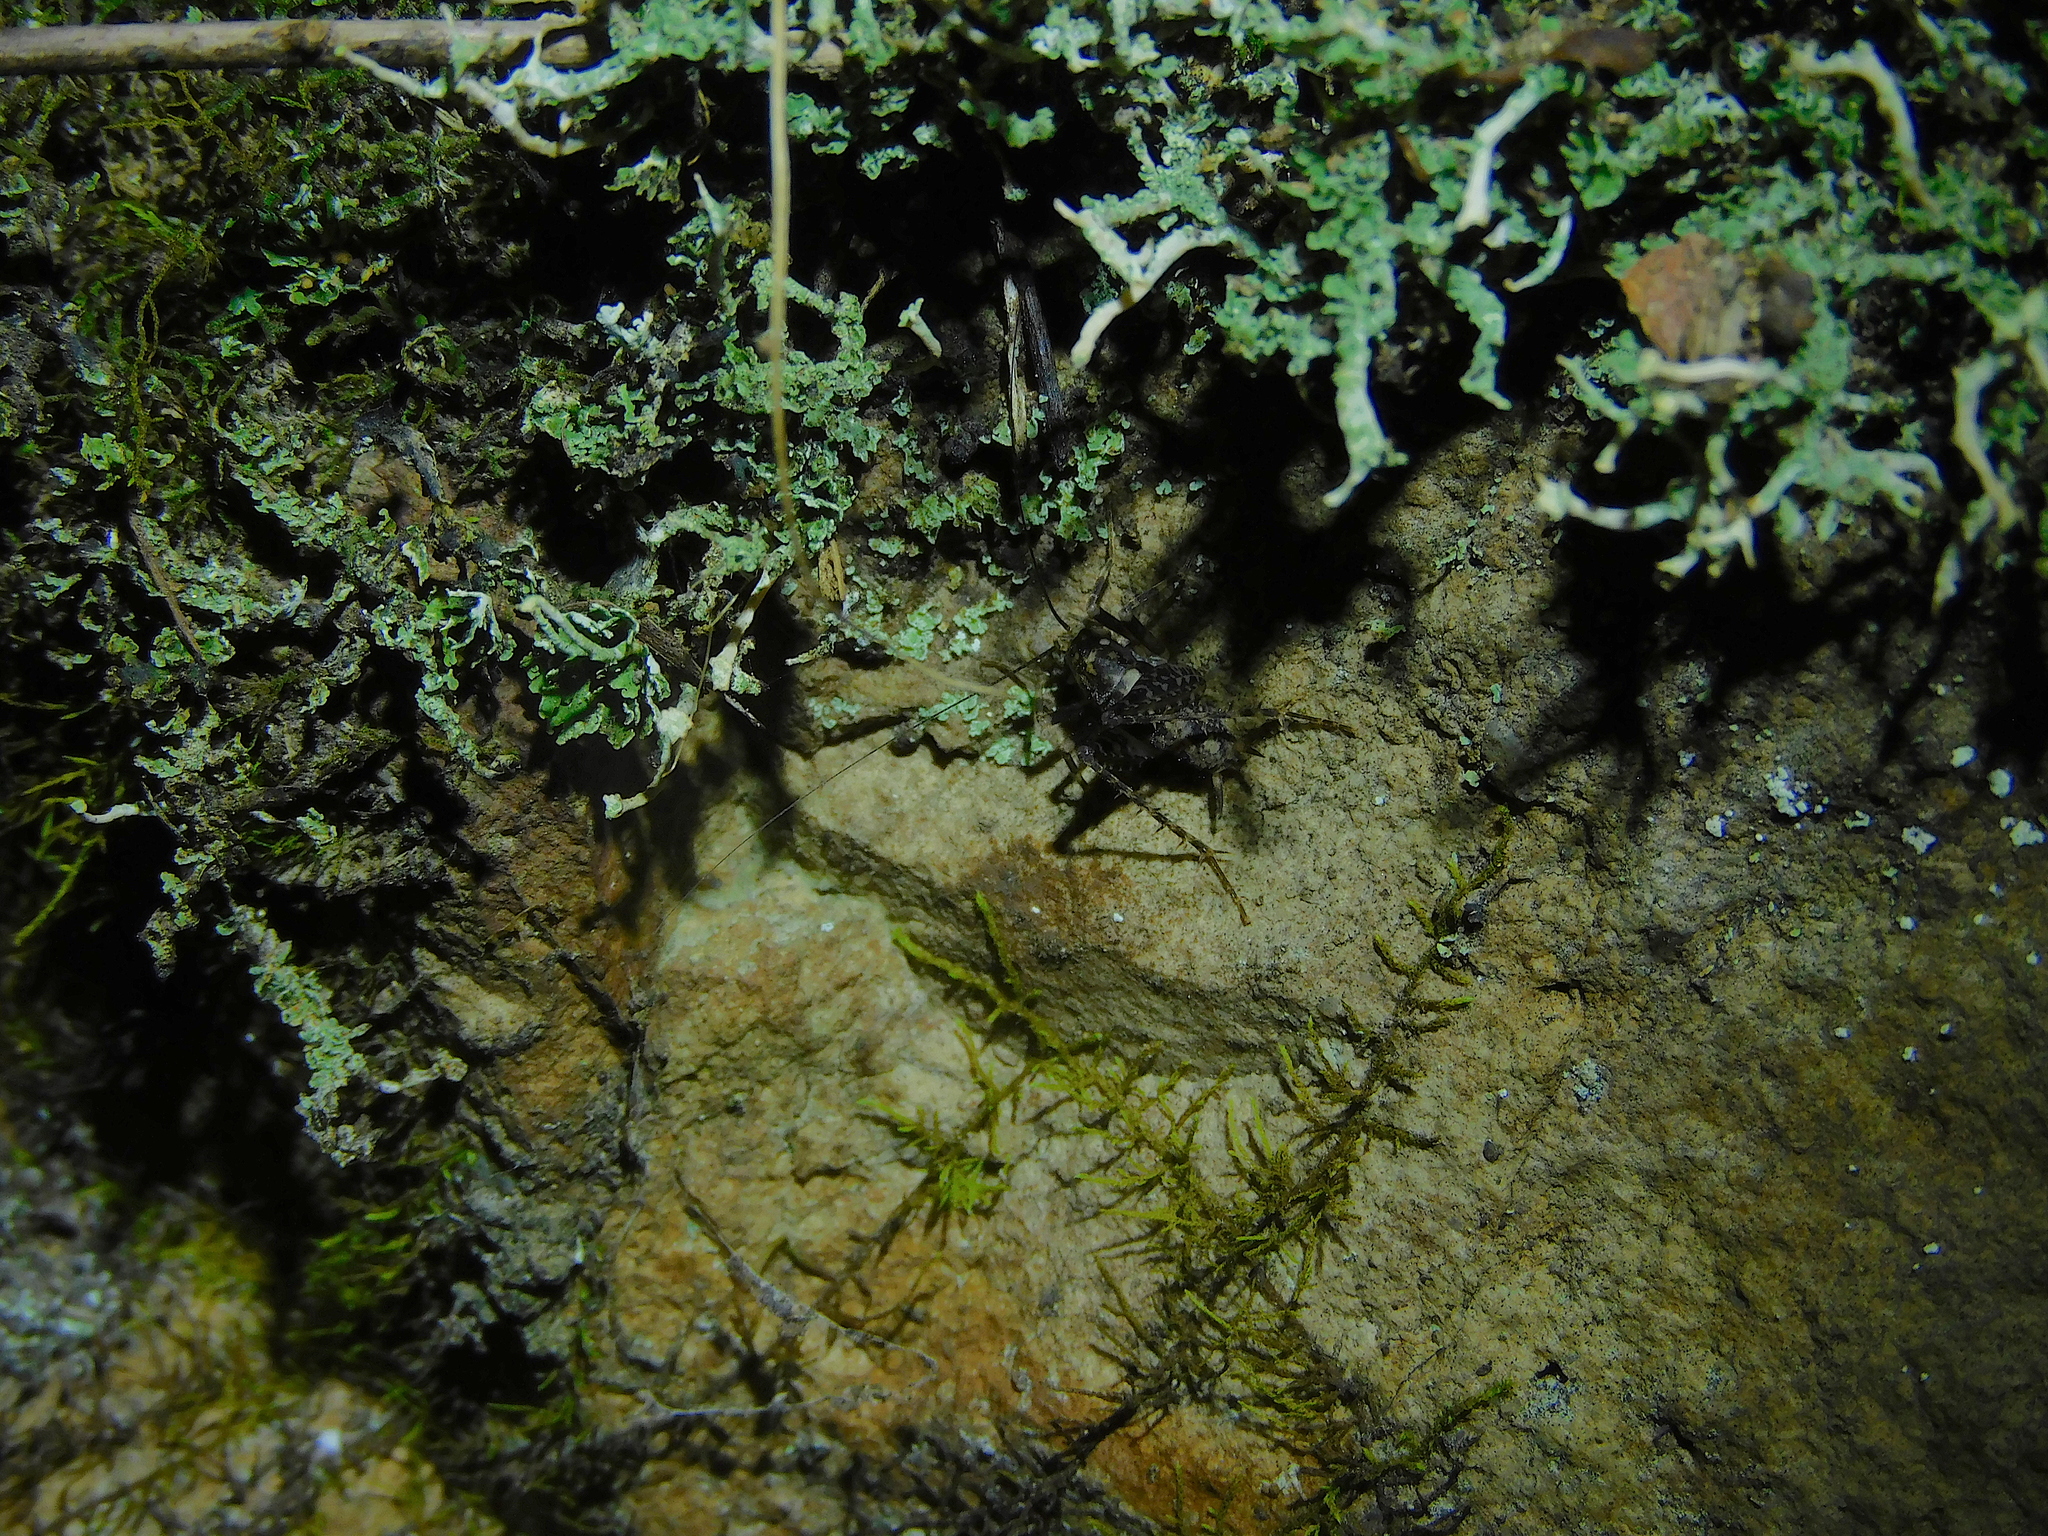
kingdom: Animalia
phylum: Arthropoda
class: Insecta
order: Orthoptera
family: Rhaphidophoridae
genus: Parvotettix
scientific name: Parvotettix domesticus
